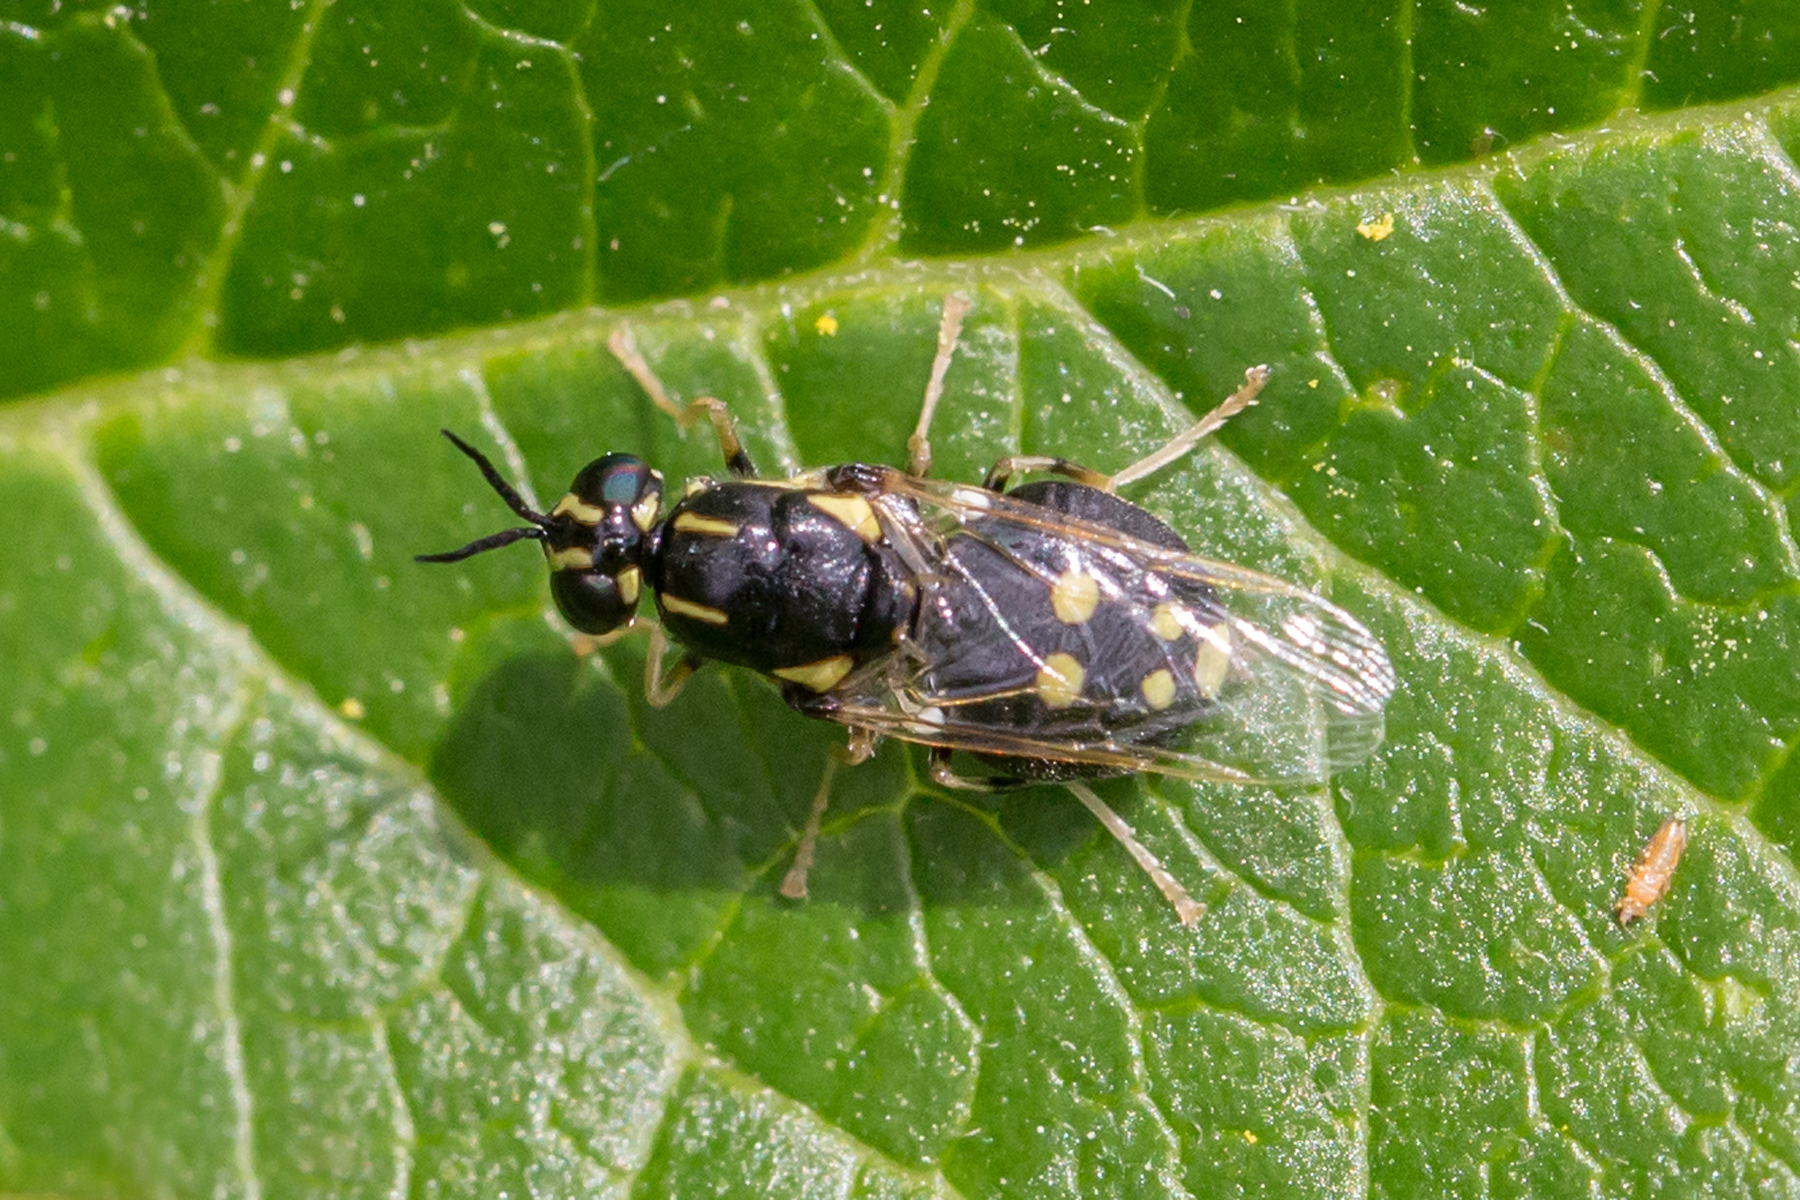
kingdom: Animalia
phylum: Arthropoda
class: Insecta
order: Diptera
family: Stratiomyidae
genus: Caloparyphus
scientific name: Caloparyphus tetraspilus
